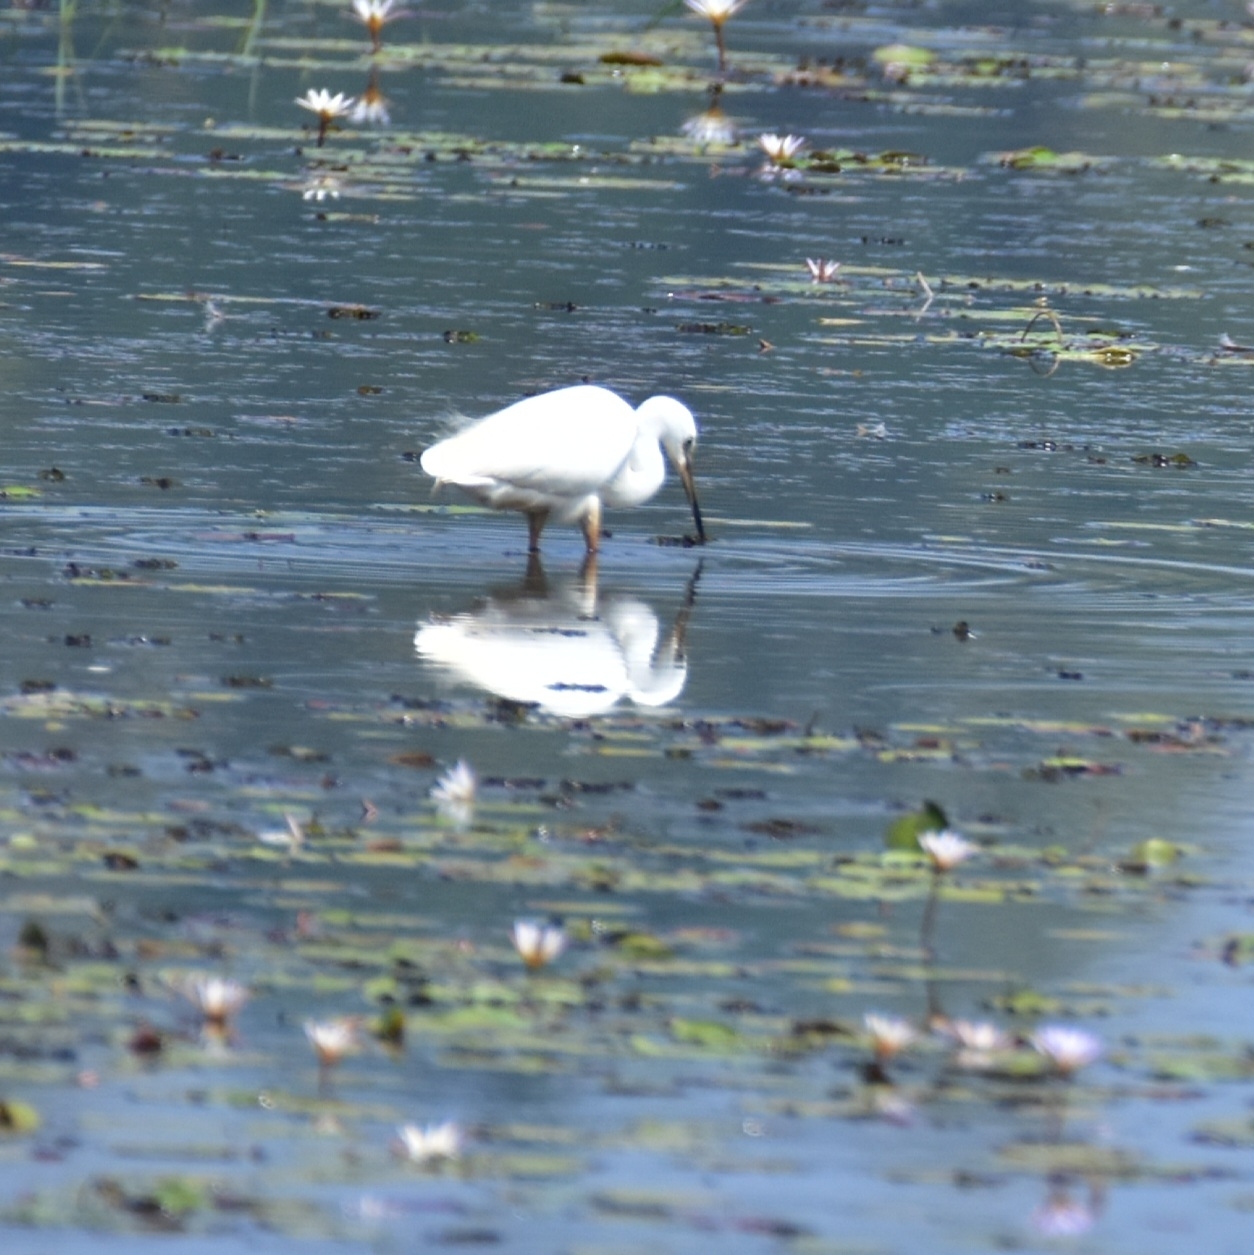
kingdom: Animalia
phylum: Chordata
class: Aves
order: Pelecaniformes
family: Ardeidae
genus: Egretta
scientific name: Egretta garzetta
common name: Little egret
